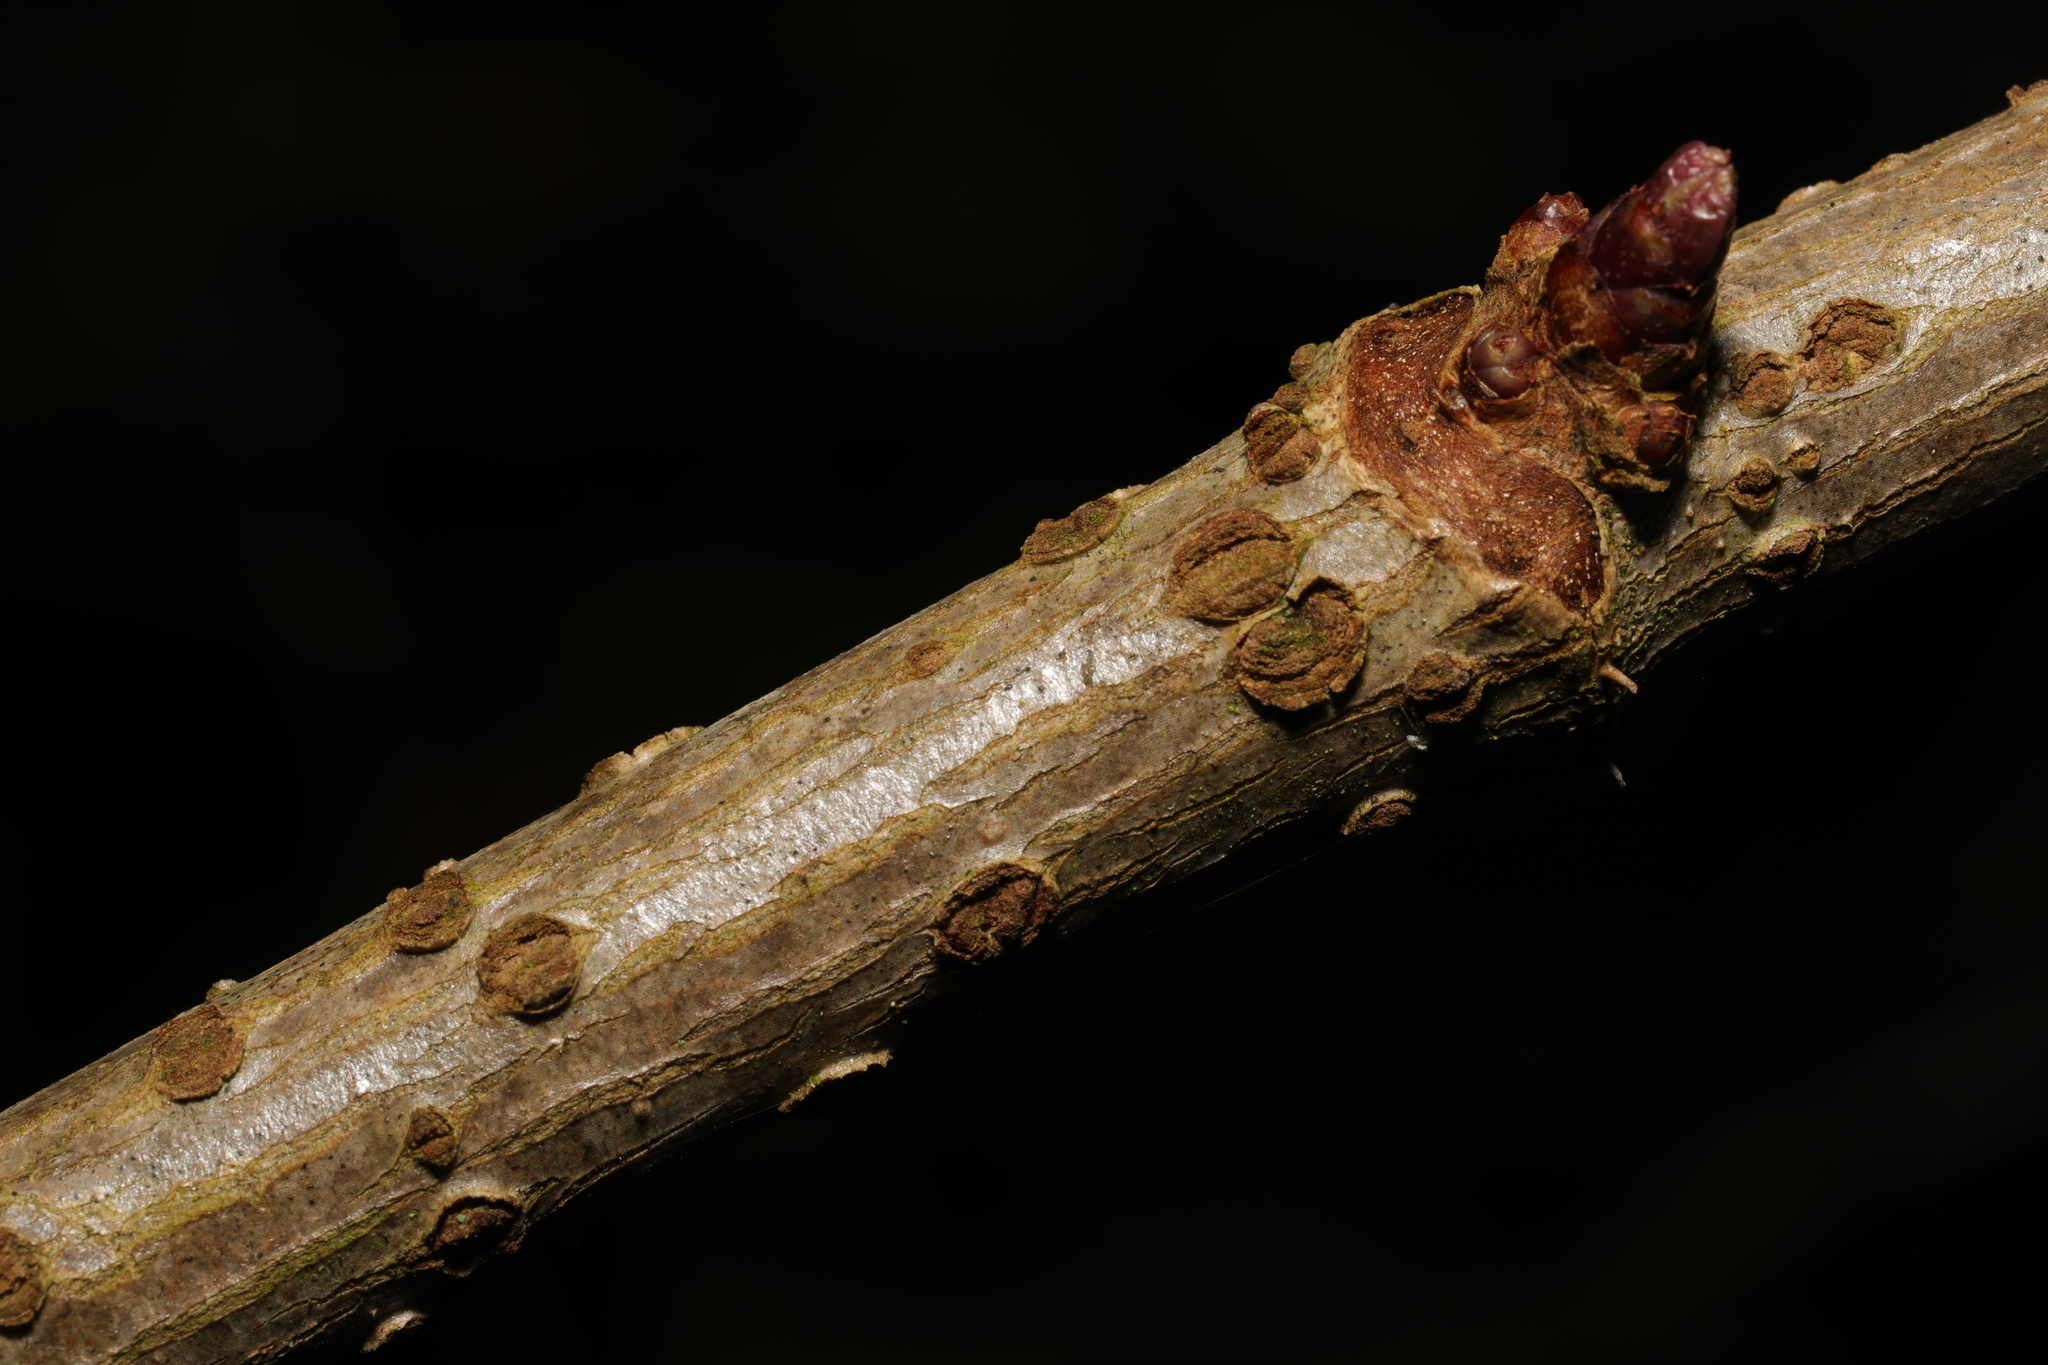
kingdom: Plantae
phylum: Tracheophyta
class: Magnoliopsida
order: Dipsacales
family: Viburnaceae
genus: Sambucus
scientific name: Sambucus nigra
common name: Elder
